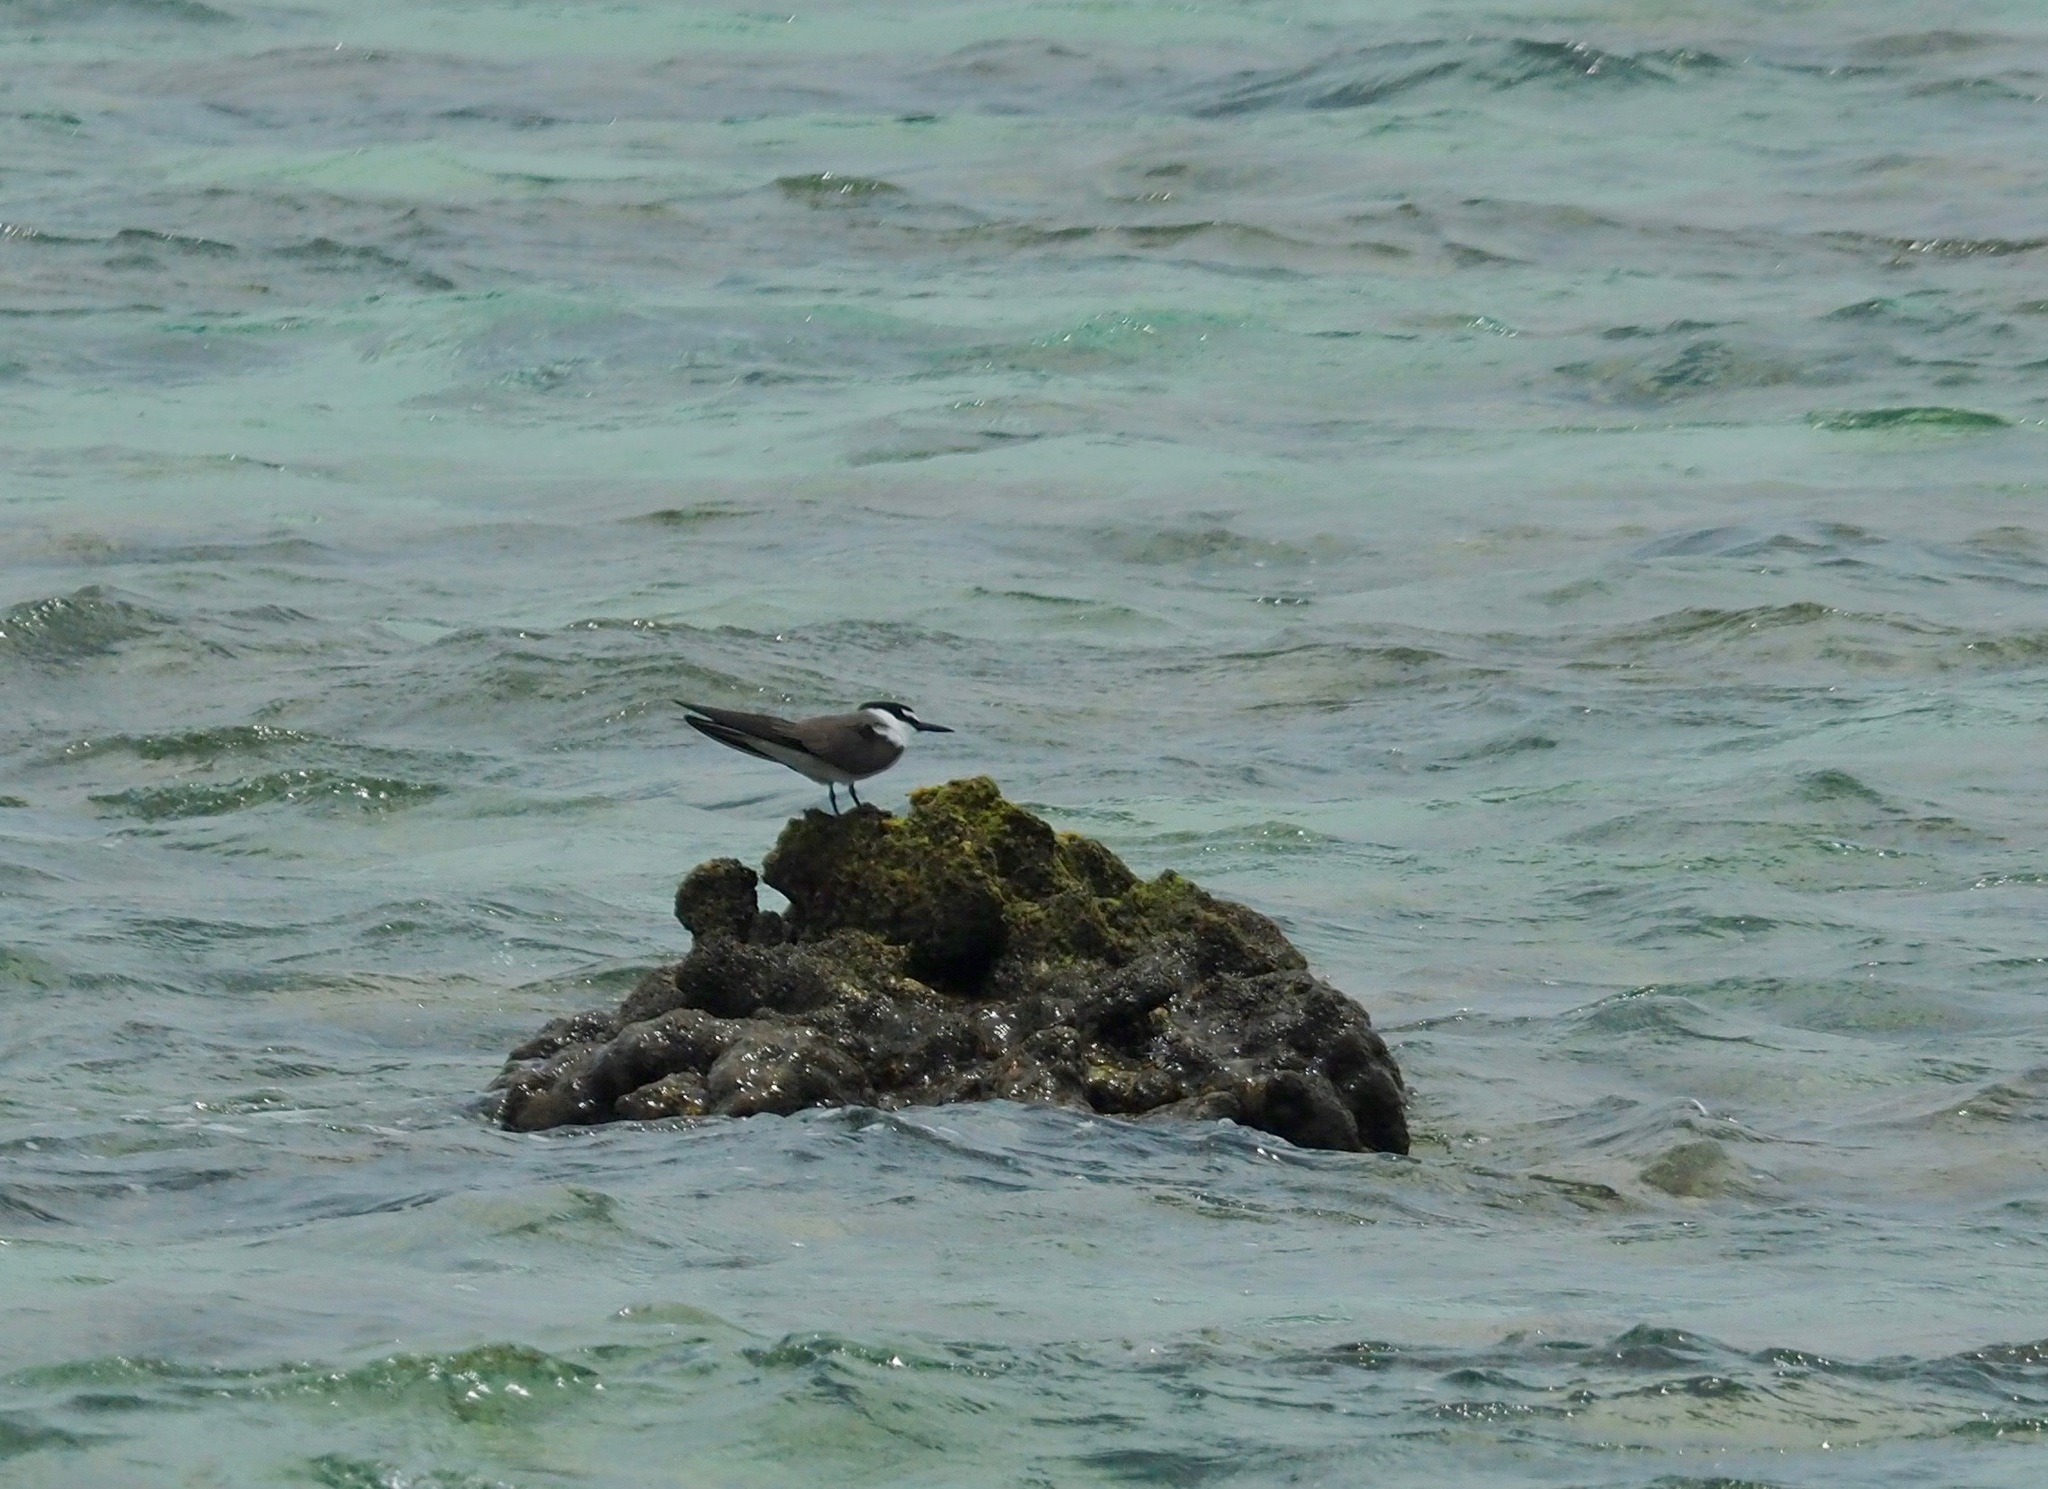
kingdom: Animalia
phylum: Chordata
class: Aves
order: Charadriiformes
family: Laridae
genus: Onychoprion
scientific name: Onychoprion anaethetus
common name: Bridled tern
